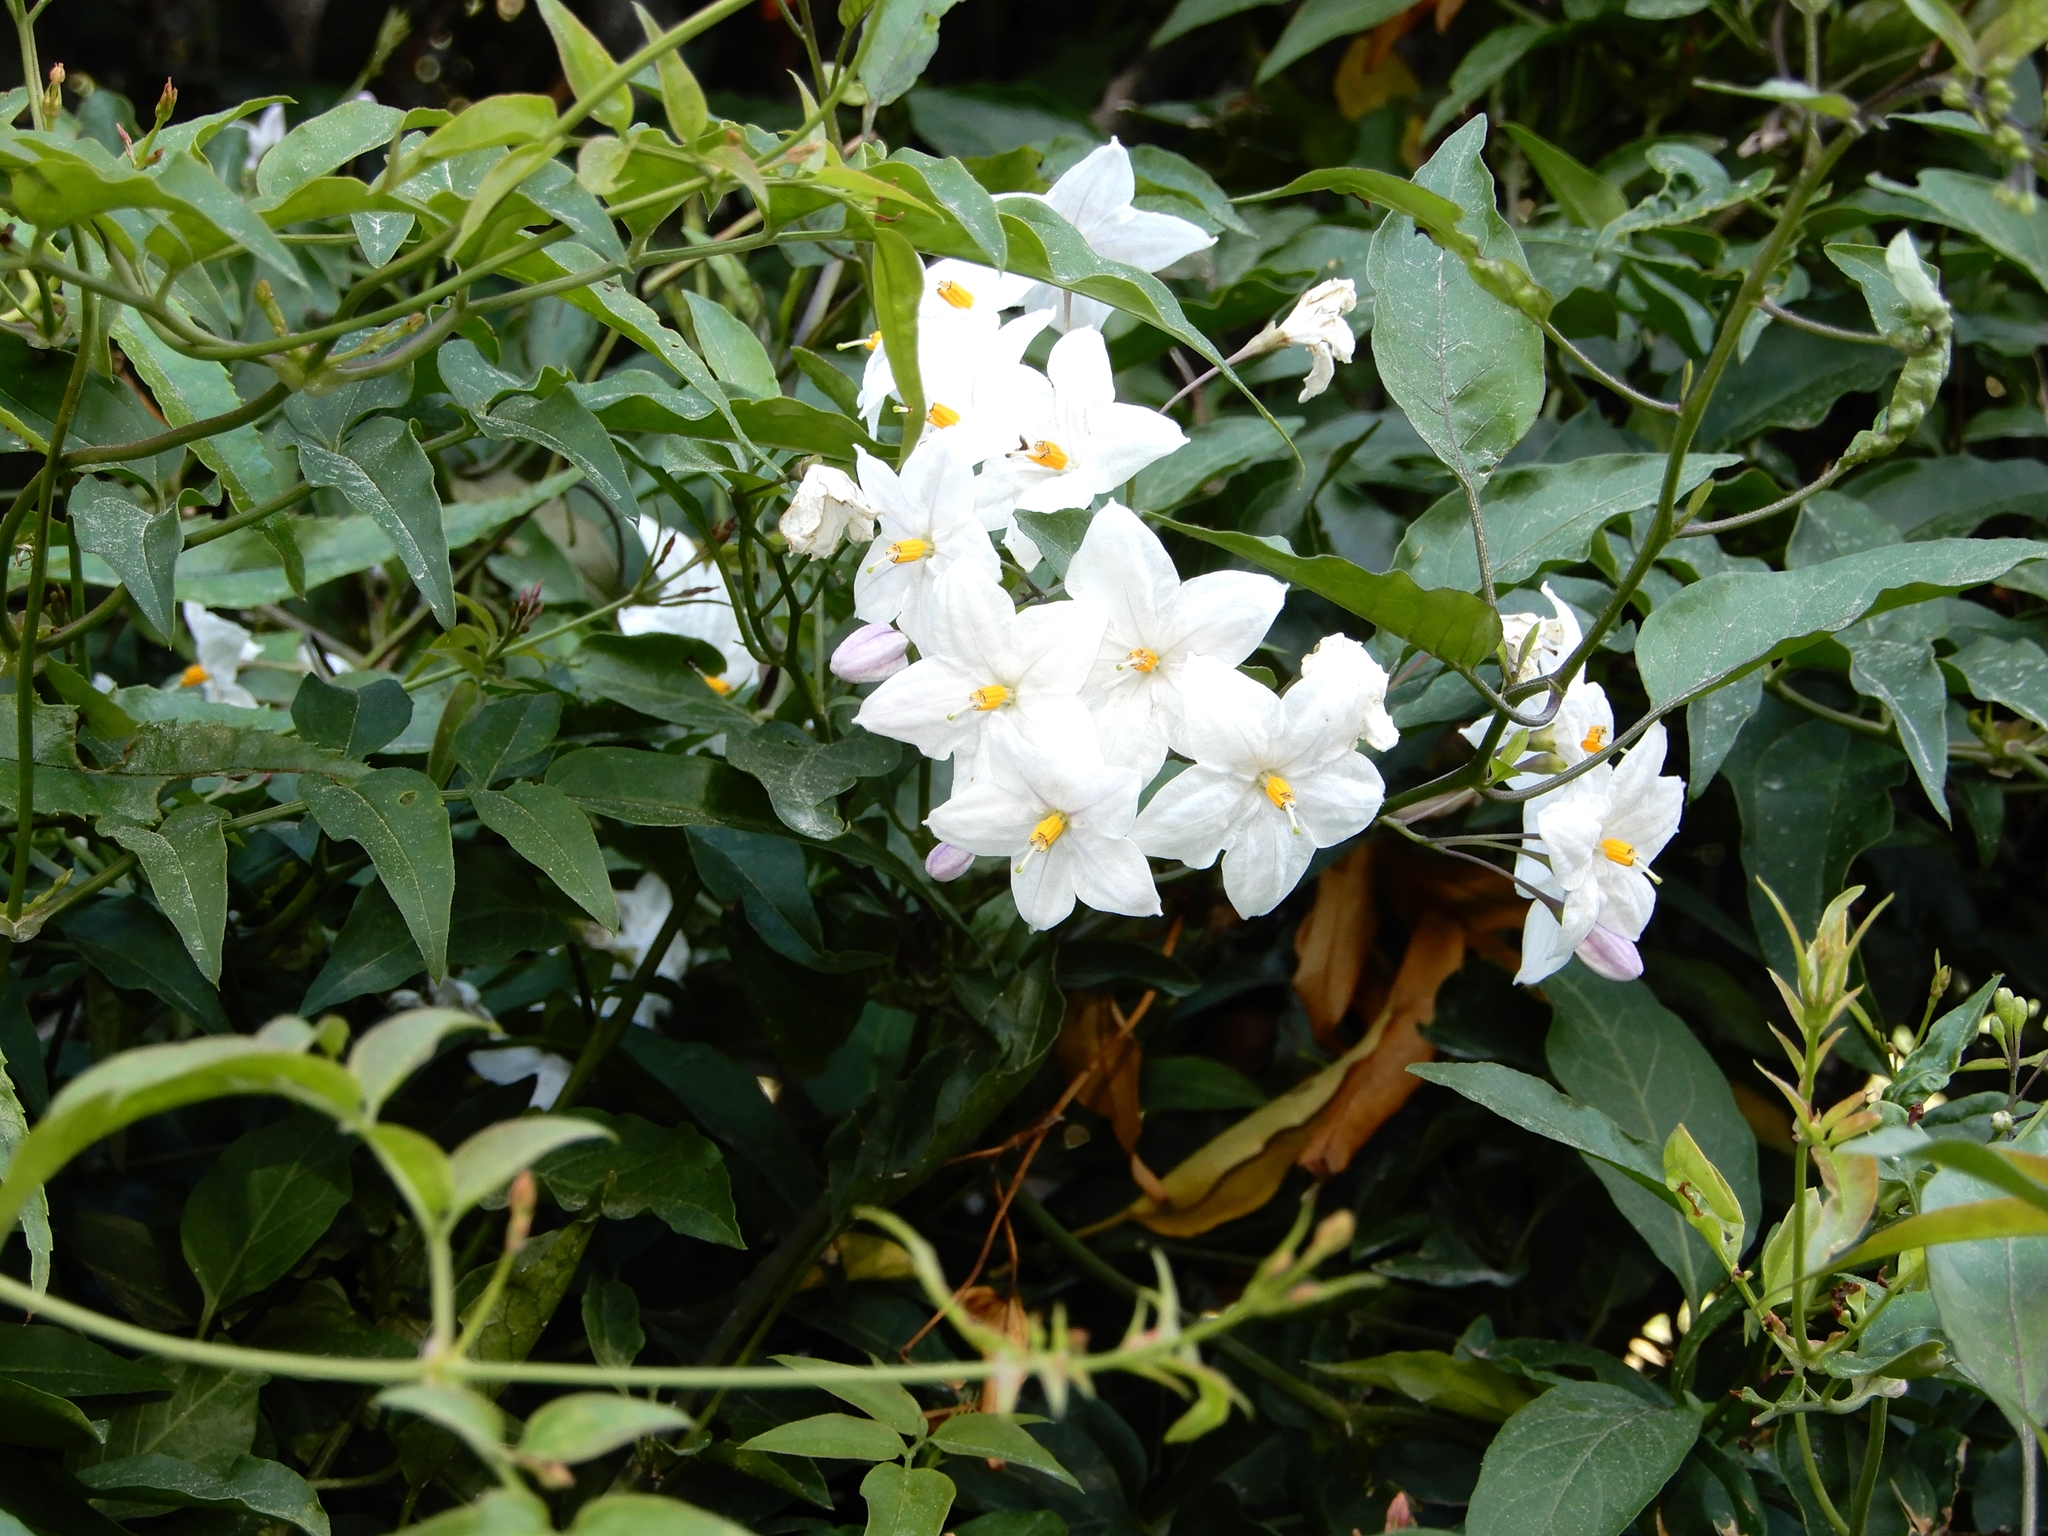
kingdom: Plantae
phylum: Tracheophyta
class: Magnoliopsida
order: Solanales
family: Solanaceae
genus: Solanum
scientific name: Solanum laxum
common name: Nightshade
